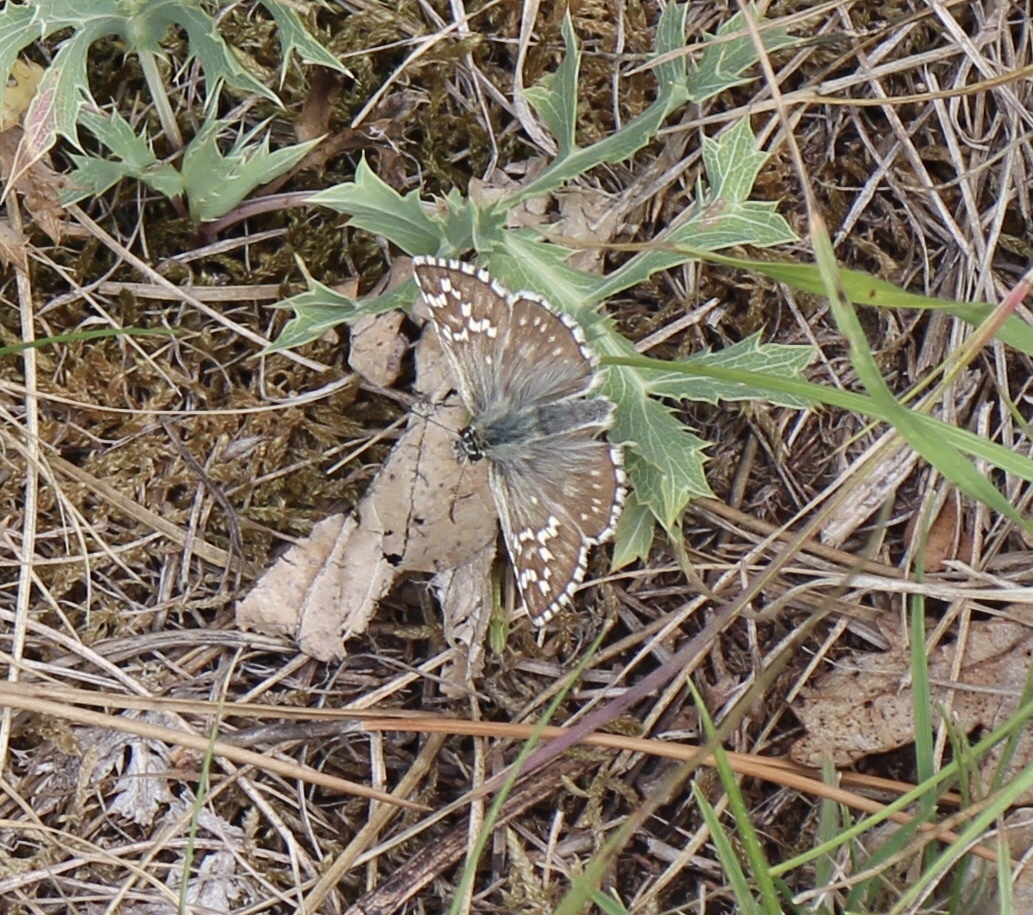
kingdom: Animalia
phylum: Arthropoda
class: Insecta
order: Lepidoptera
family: Hesperiidae
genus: Pyrgus
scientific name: Pyrgus fritillarius
